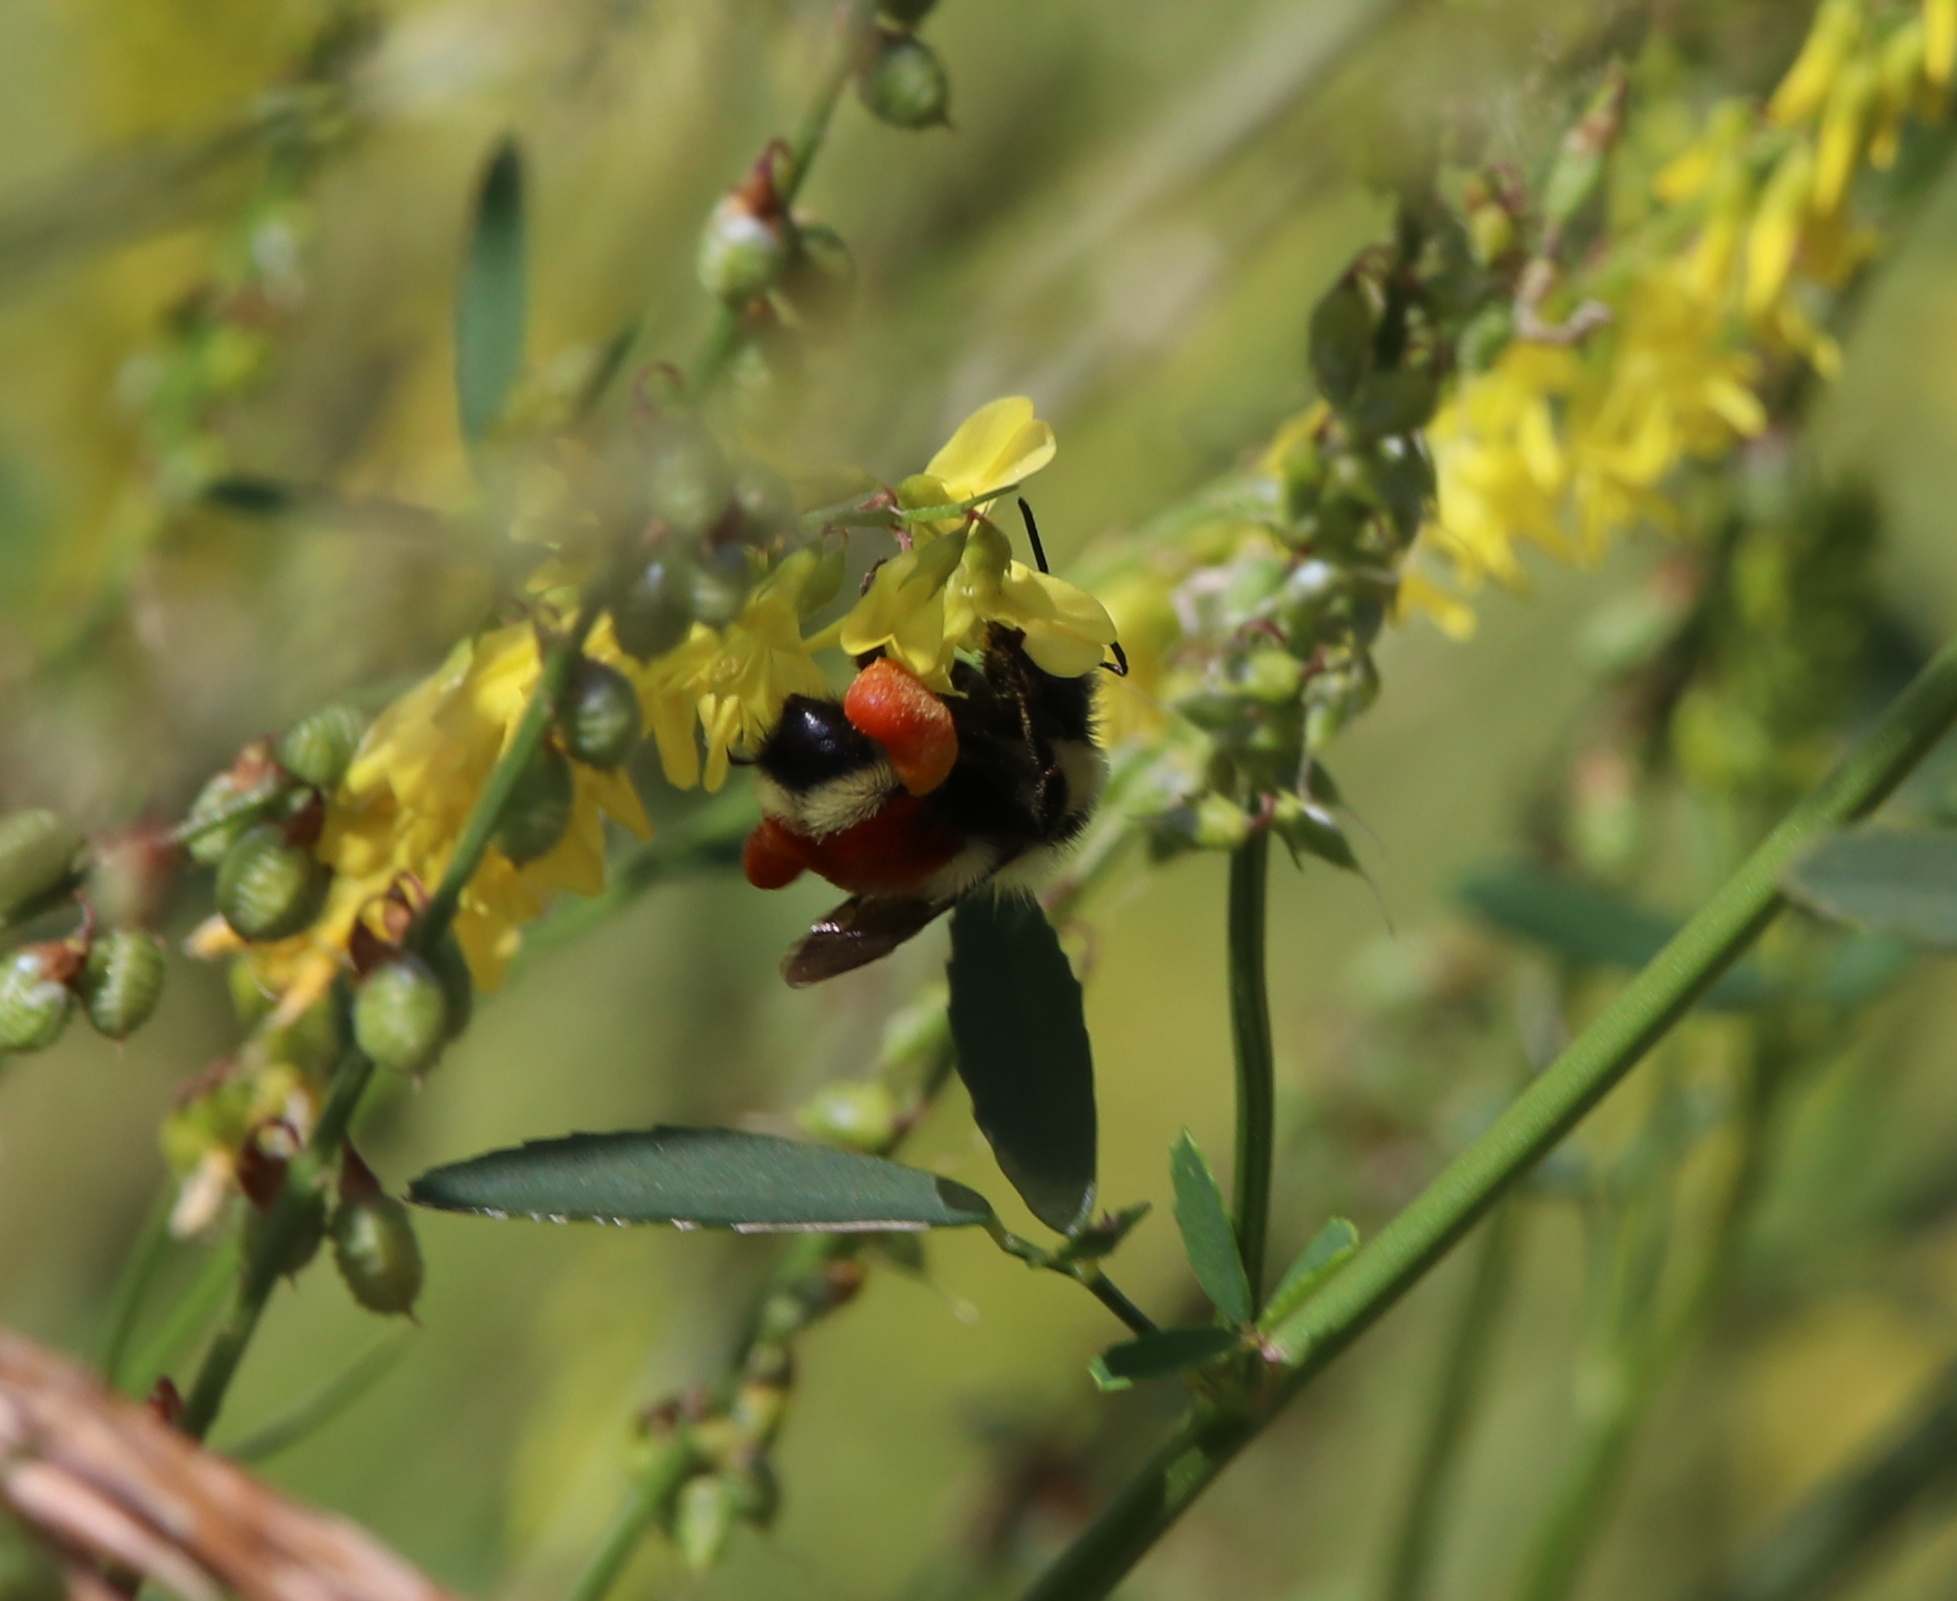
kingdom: Animalia
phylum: Arthropoda
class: Insecta
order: Hymenoptera
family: Apidae
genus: Bombus
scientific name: Bombus huntii
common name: Hunt bumble bee
